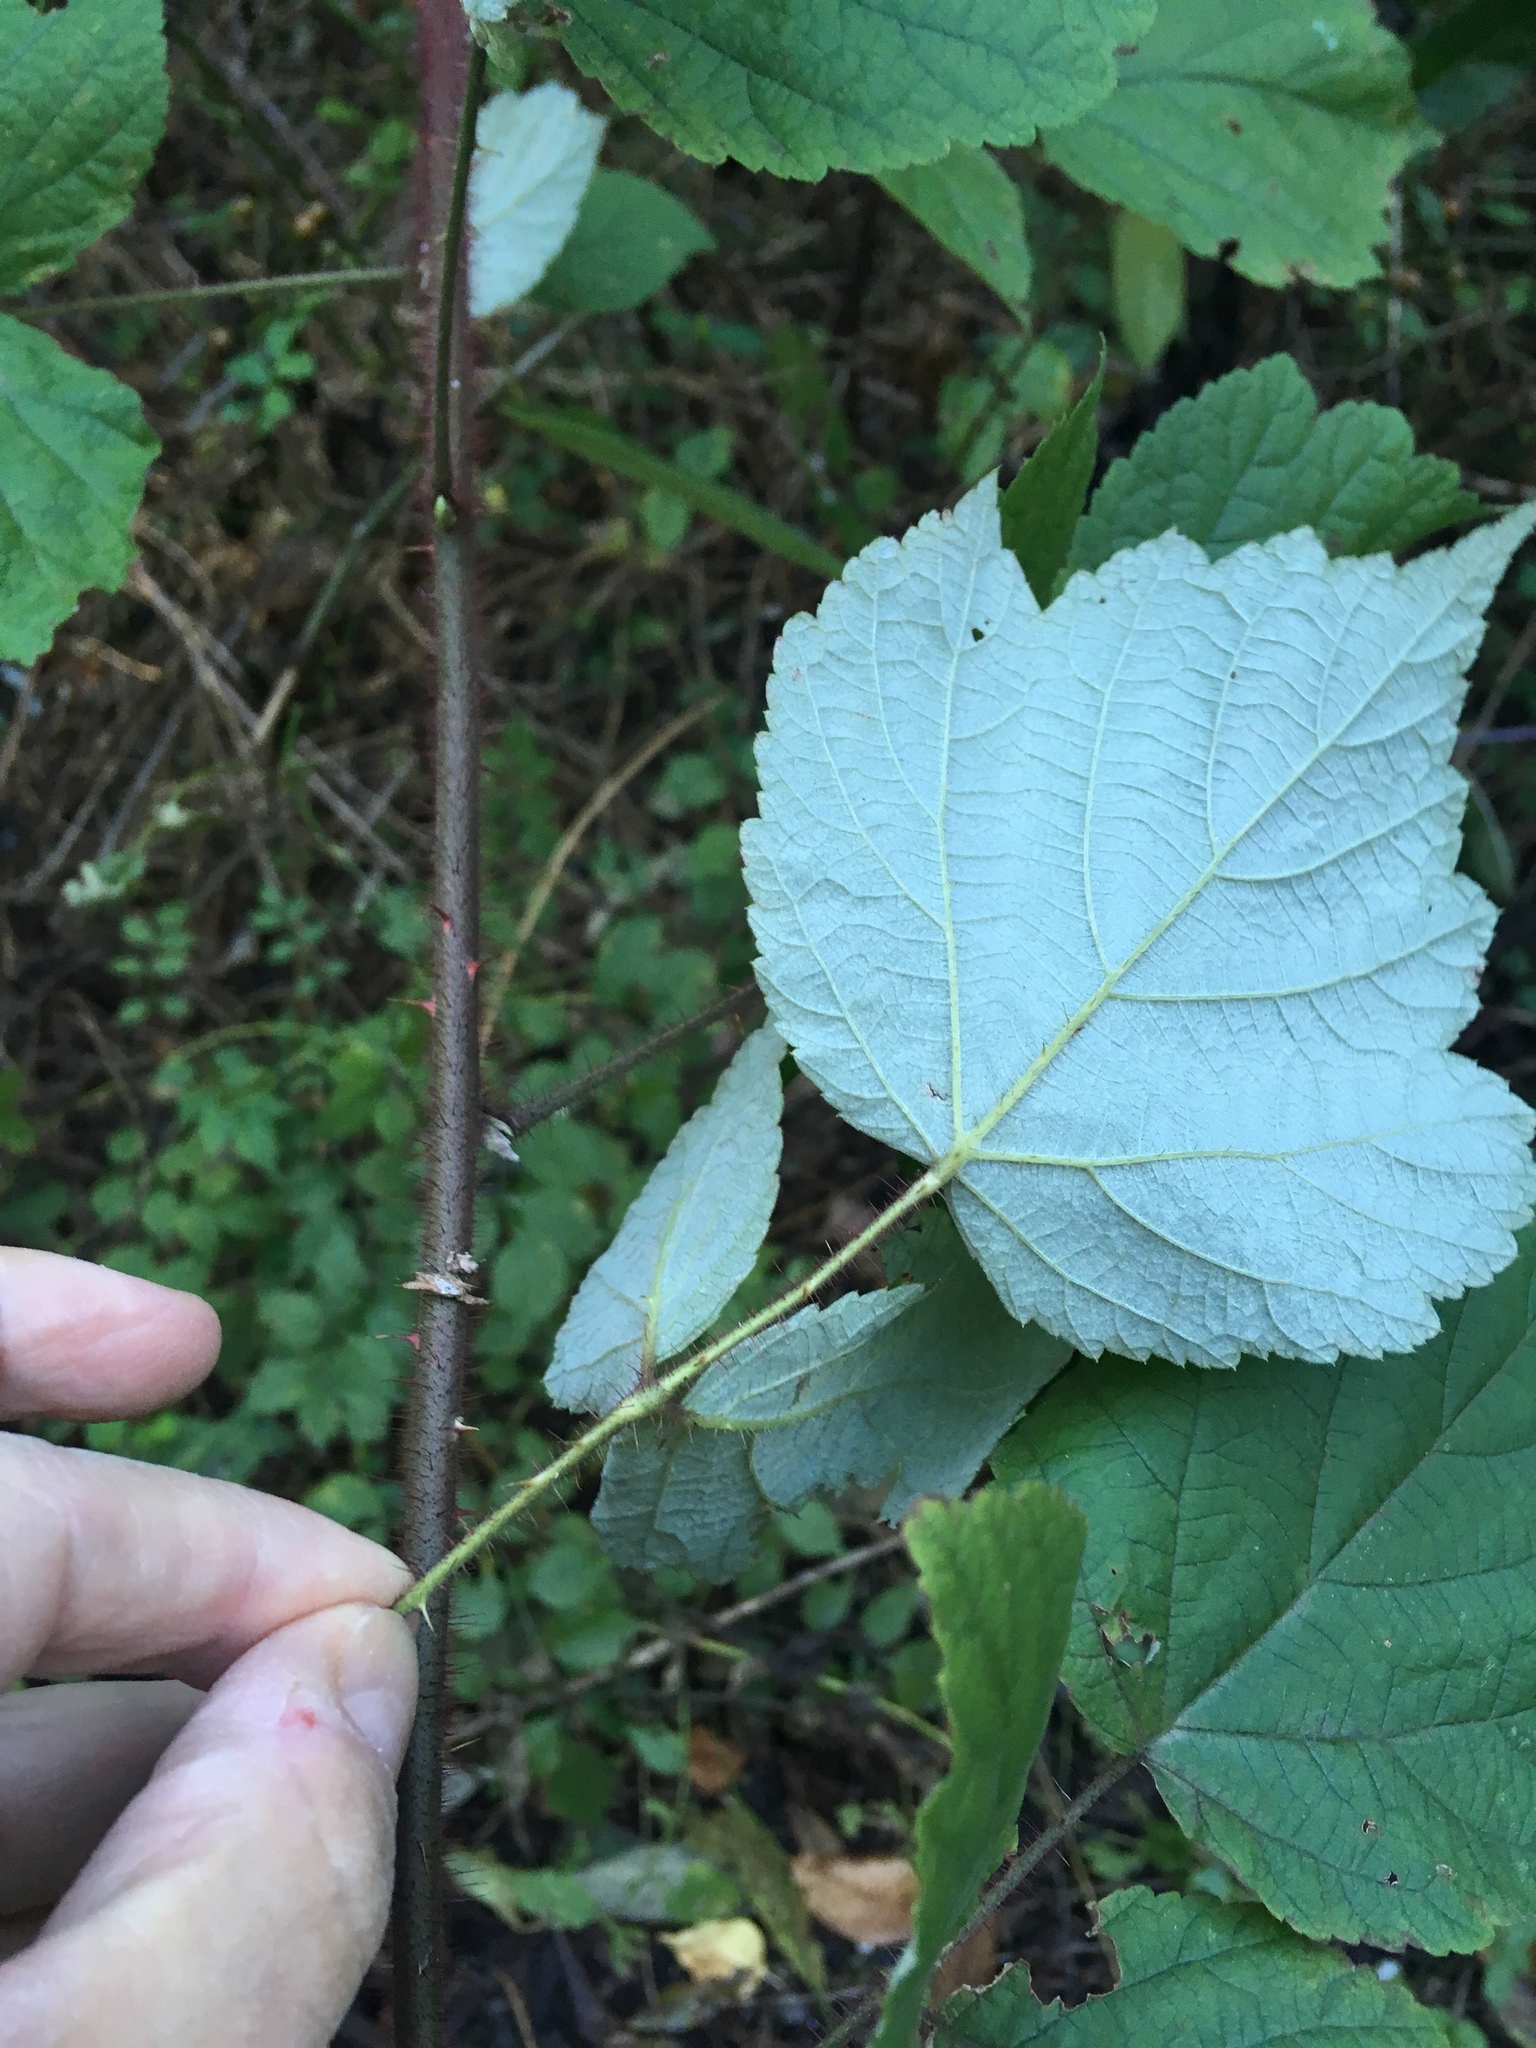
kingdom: Plantae
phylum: Tracheophyta
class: Magnoliopsida
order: Rosales
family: Rosaceae
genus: Rubus
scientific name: Rubus phoenicolasius
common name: Japanese wineberry
